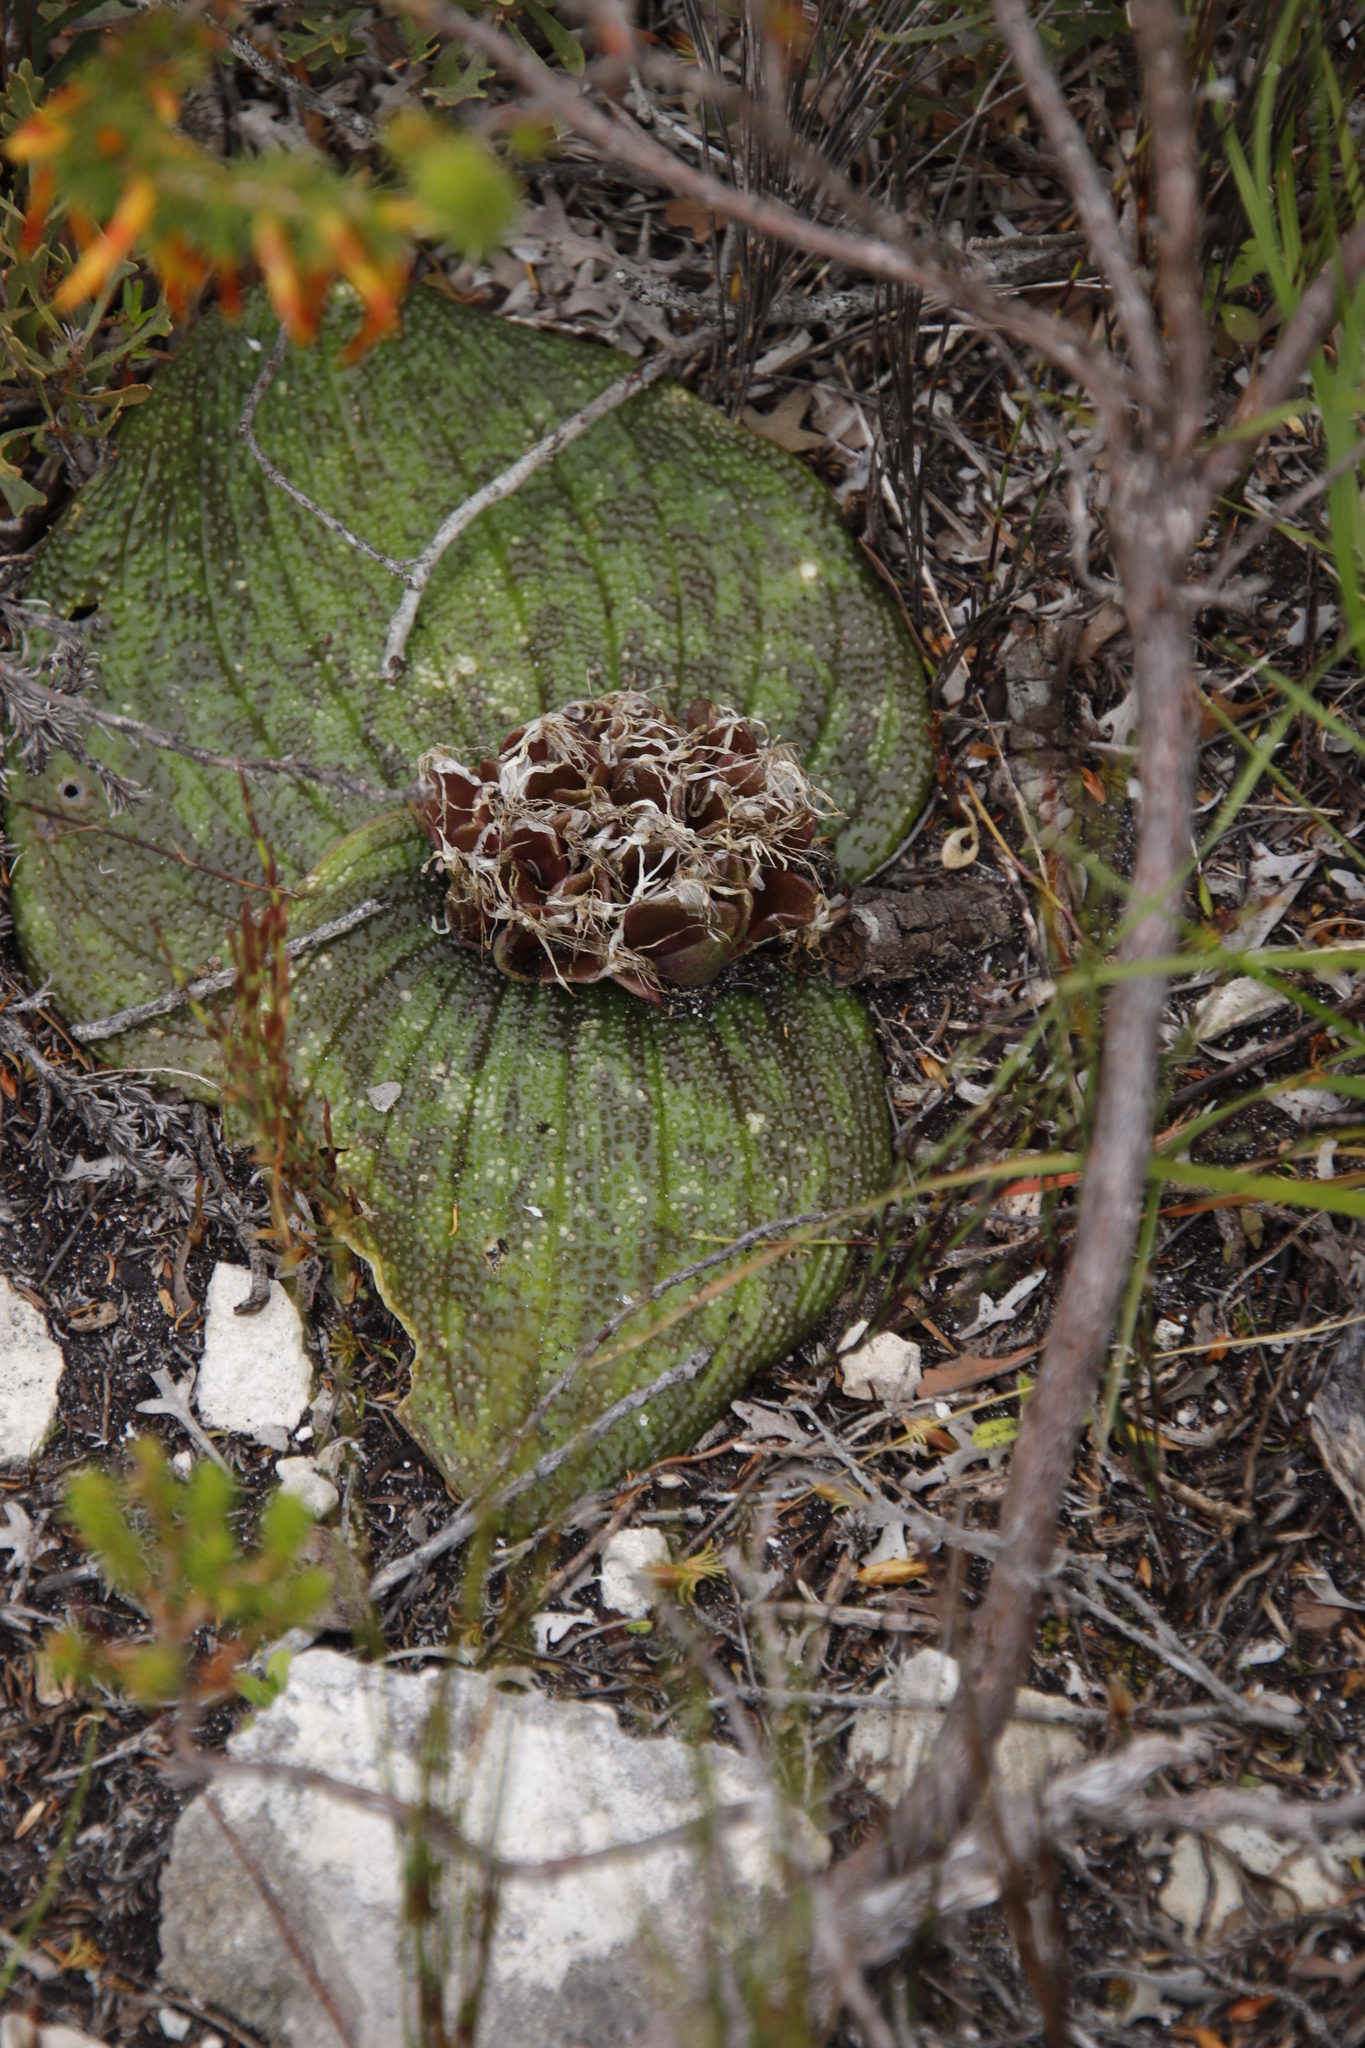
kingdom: Plantae
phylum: Tracheophyta
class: Liliopsida
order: Asparagales
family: Asparagaceae
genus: Massonia
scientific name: Massonia longipes
